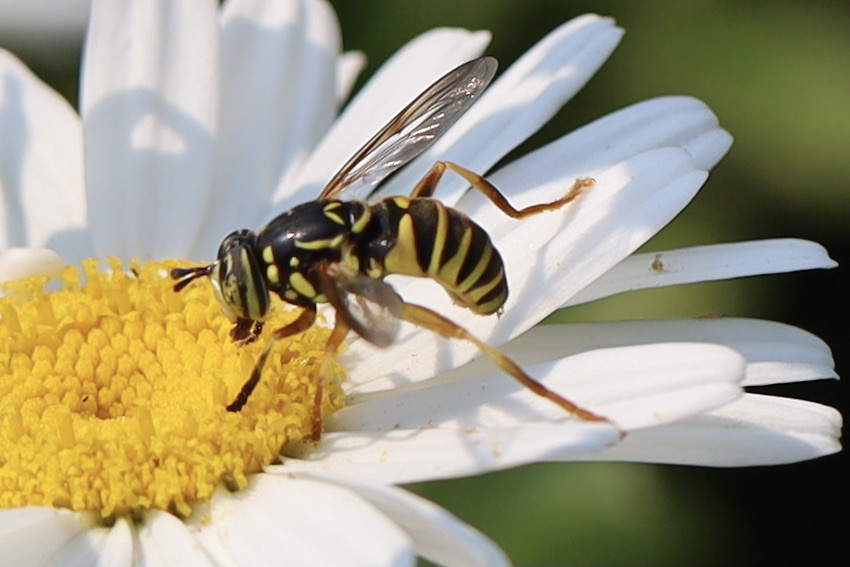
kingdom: Animalia
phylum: Arthropoda
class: Insecta
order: Diptera
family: Syrphidae
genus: Spilomyia
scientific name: Spilomyia interrupta
